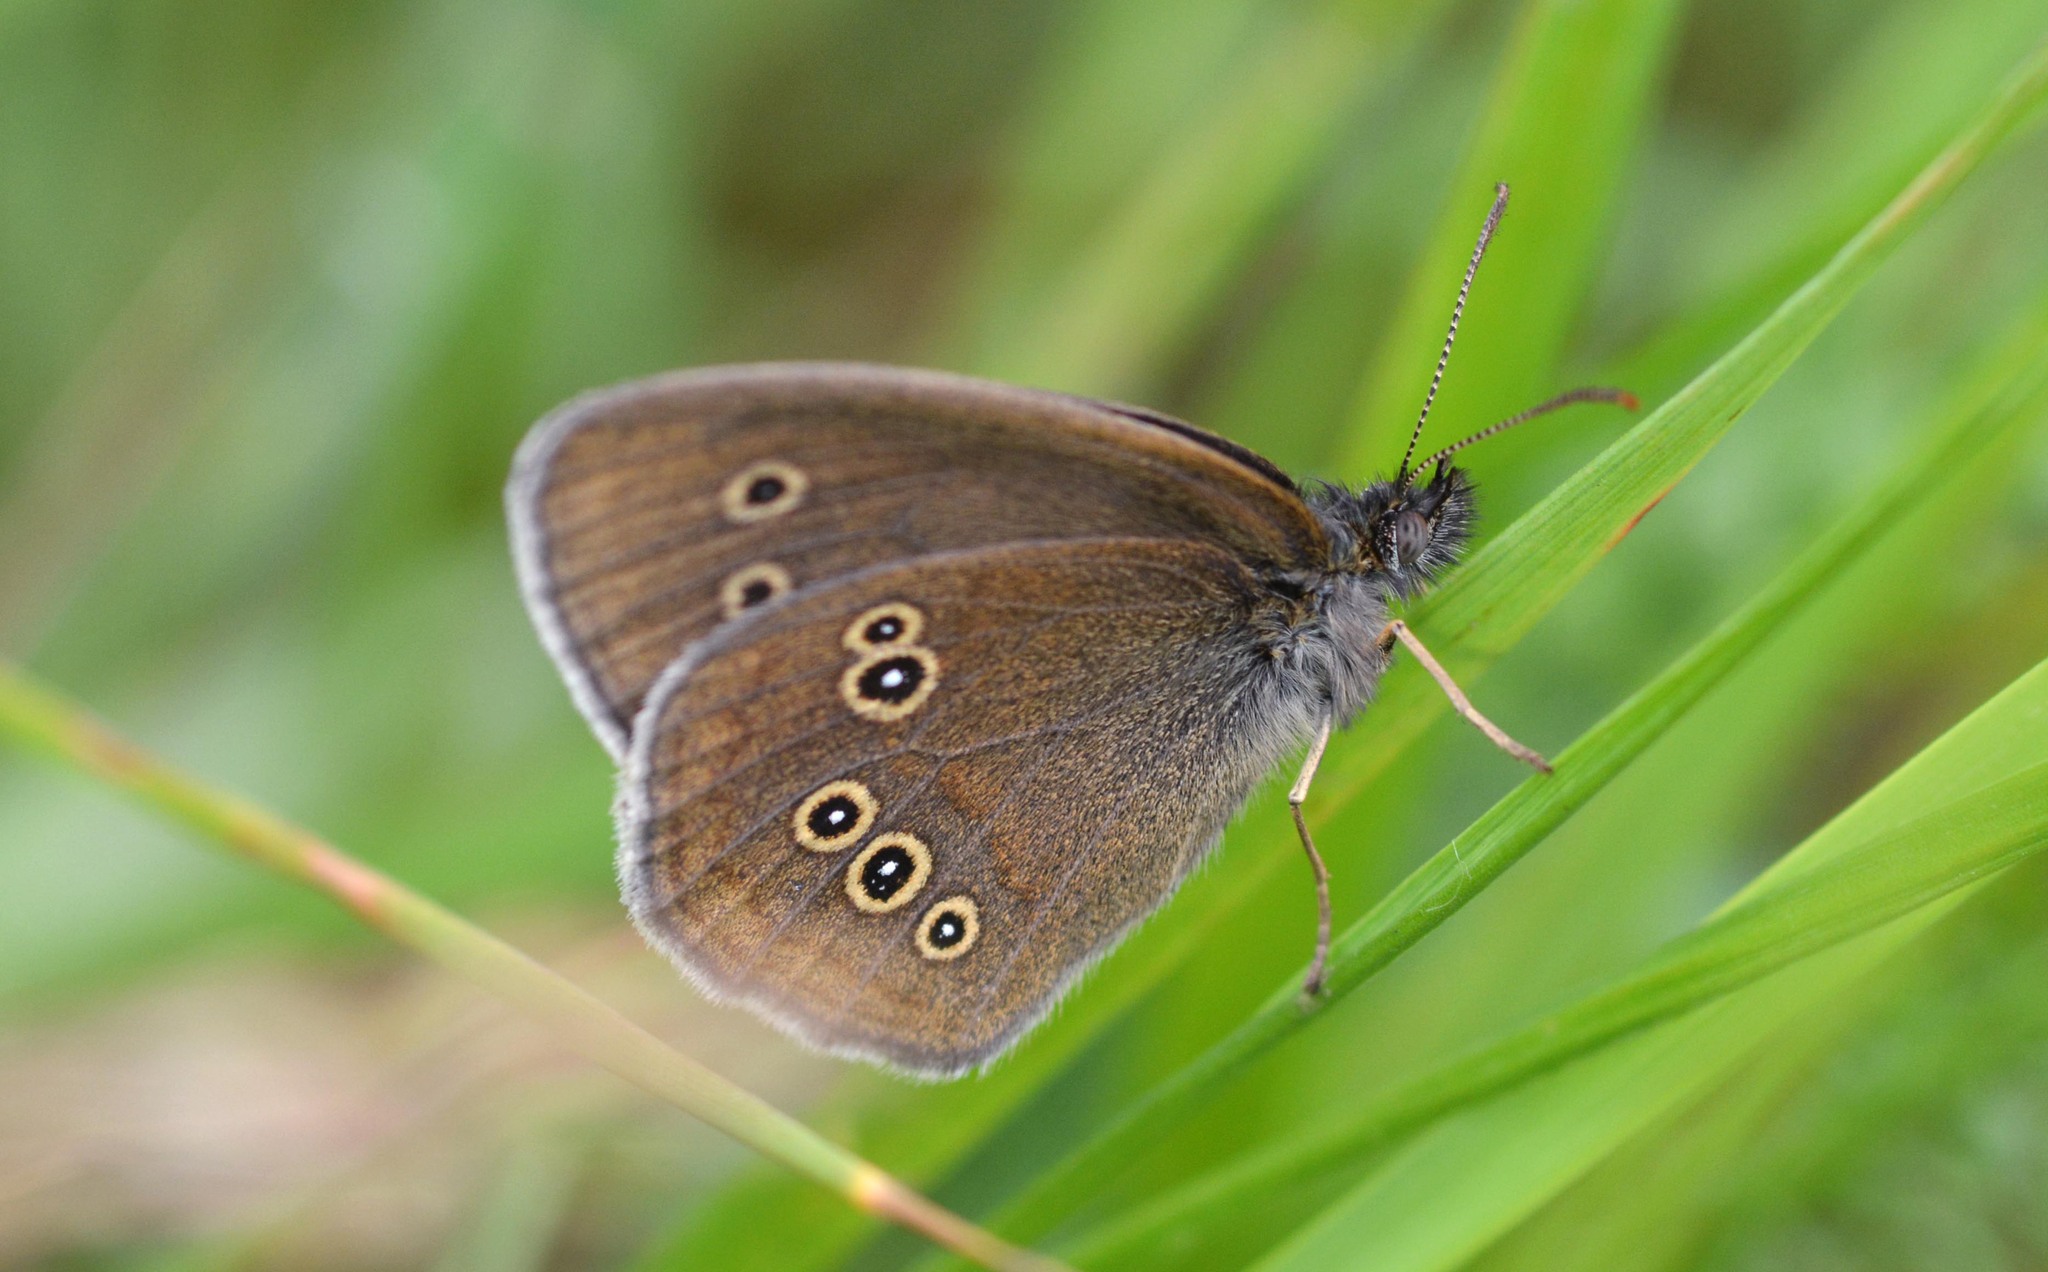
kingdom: Animalia
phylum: Arthropoda
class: Insecta
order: Lepidoptera
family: Nymphalidae
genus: Aphantopus
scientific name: Aphantopus hyperantus
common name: Ringlet
